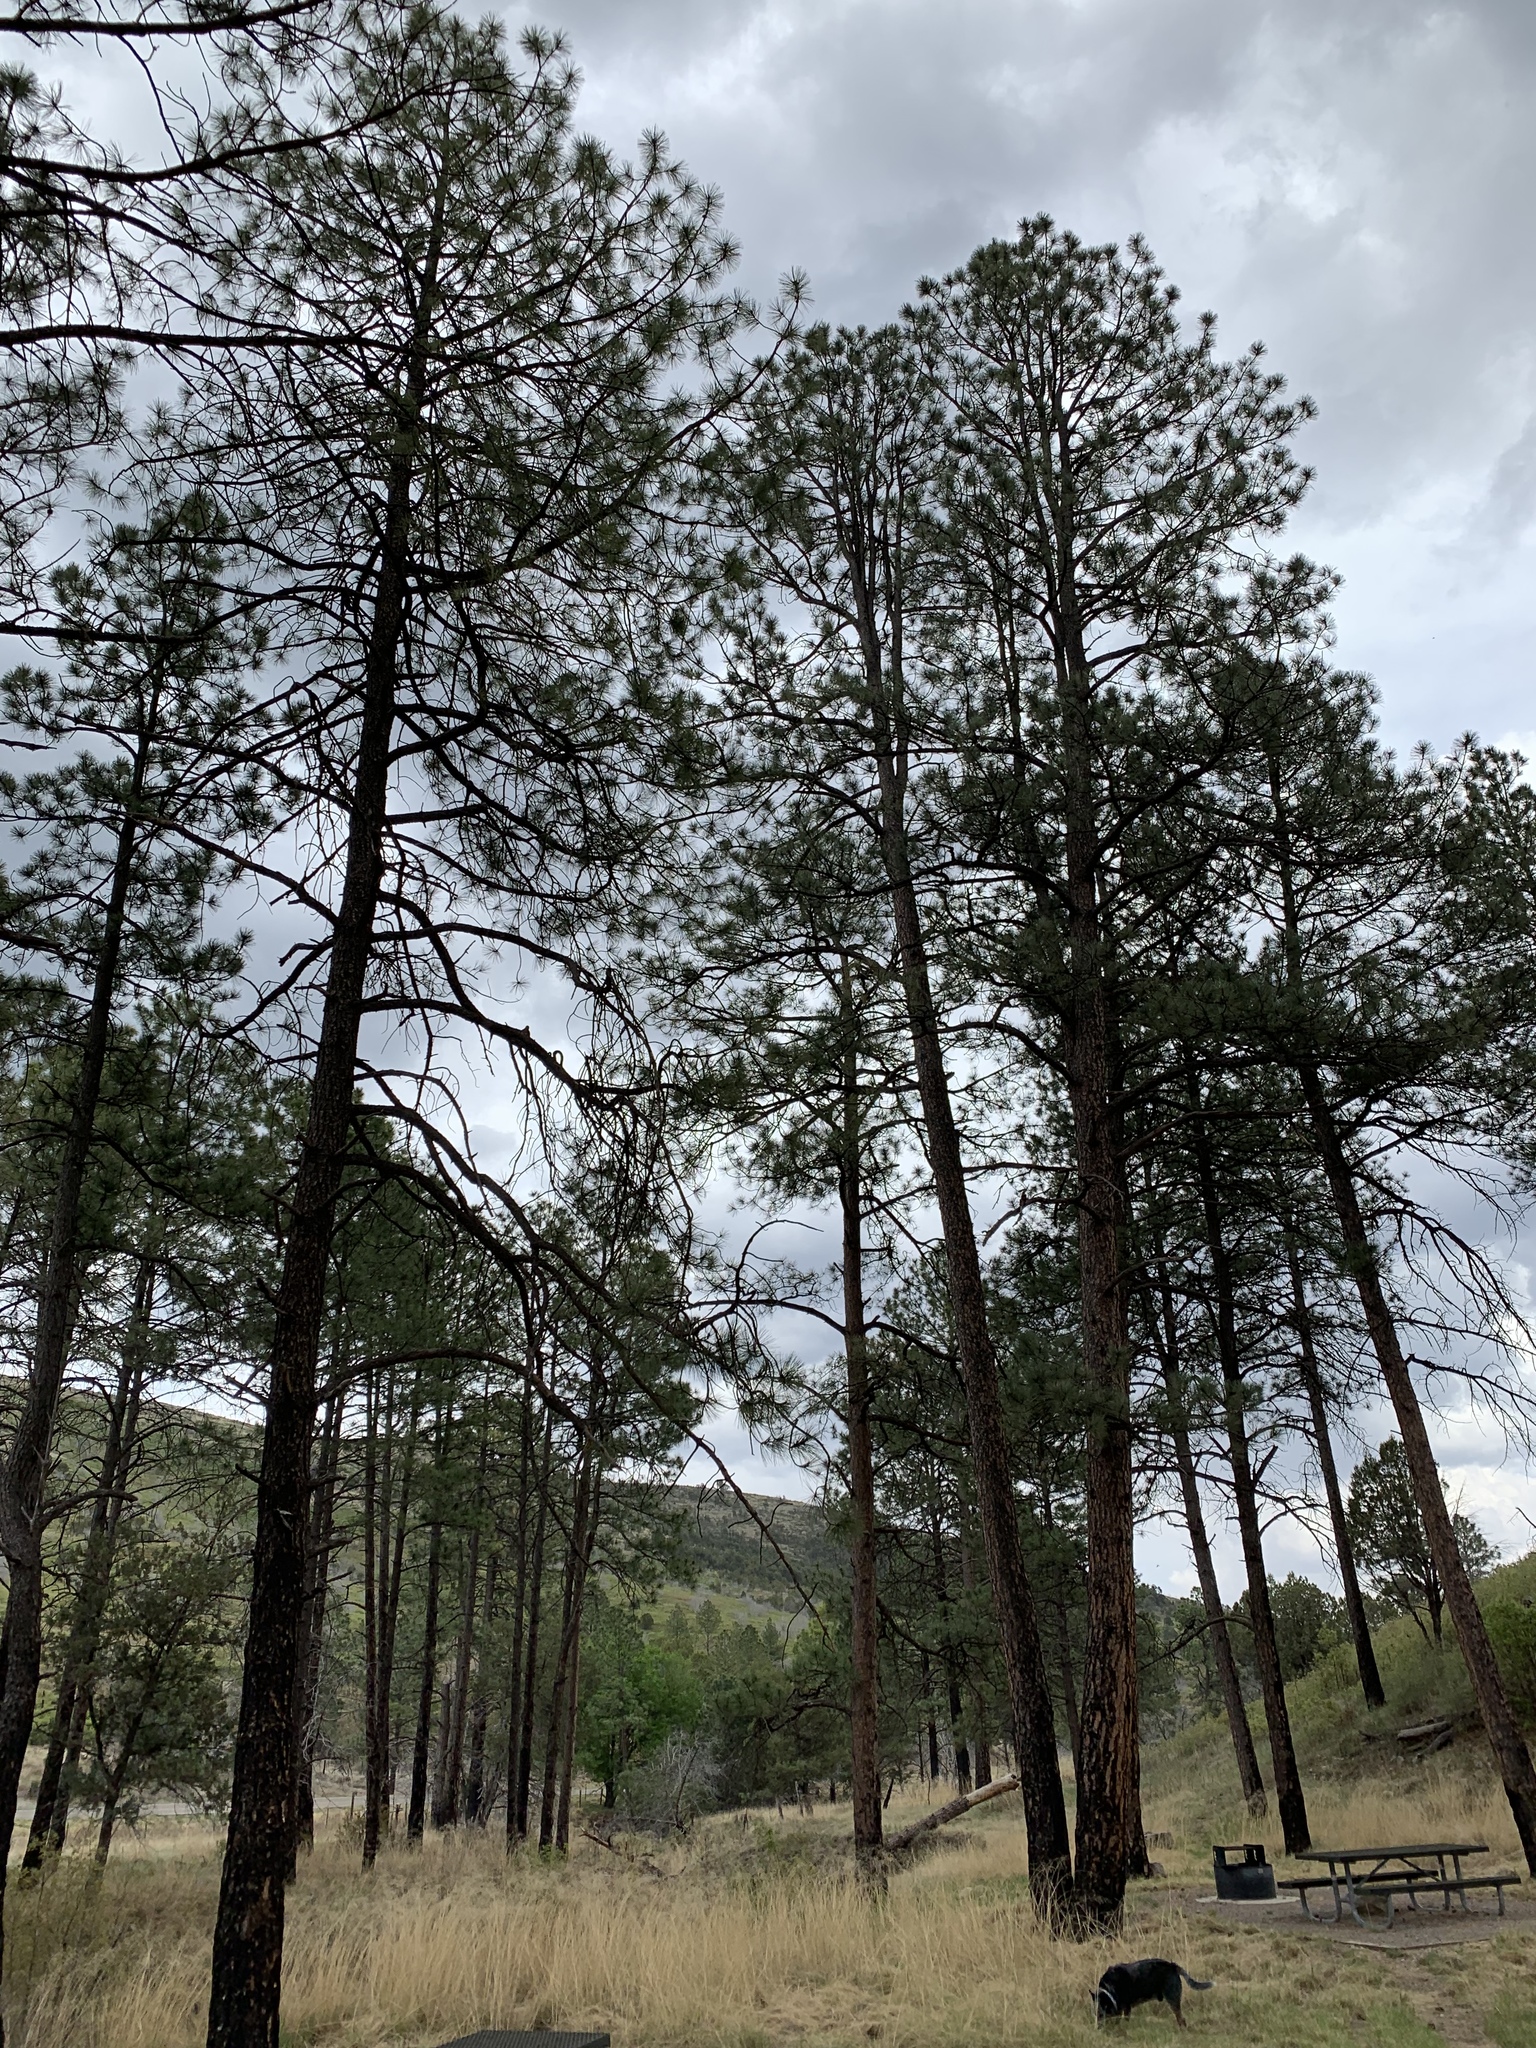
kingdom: Plantae
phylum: Tracheophyta
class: Pinopsida
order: Pinales
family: Pinaceae
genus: Pinus
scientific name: Pinus ponderosa
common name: Western yellow-pine
